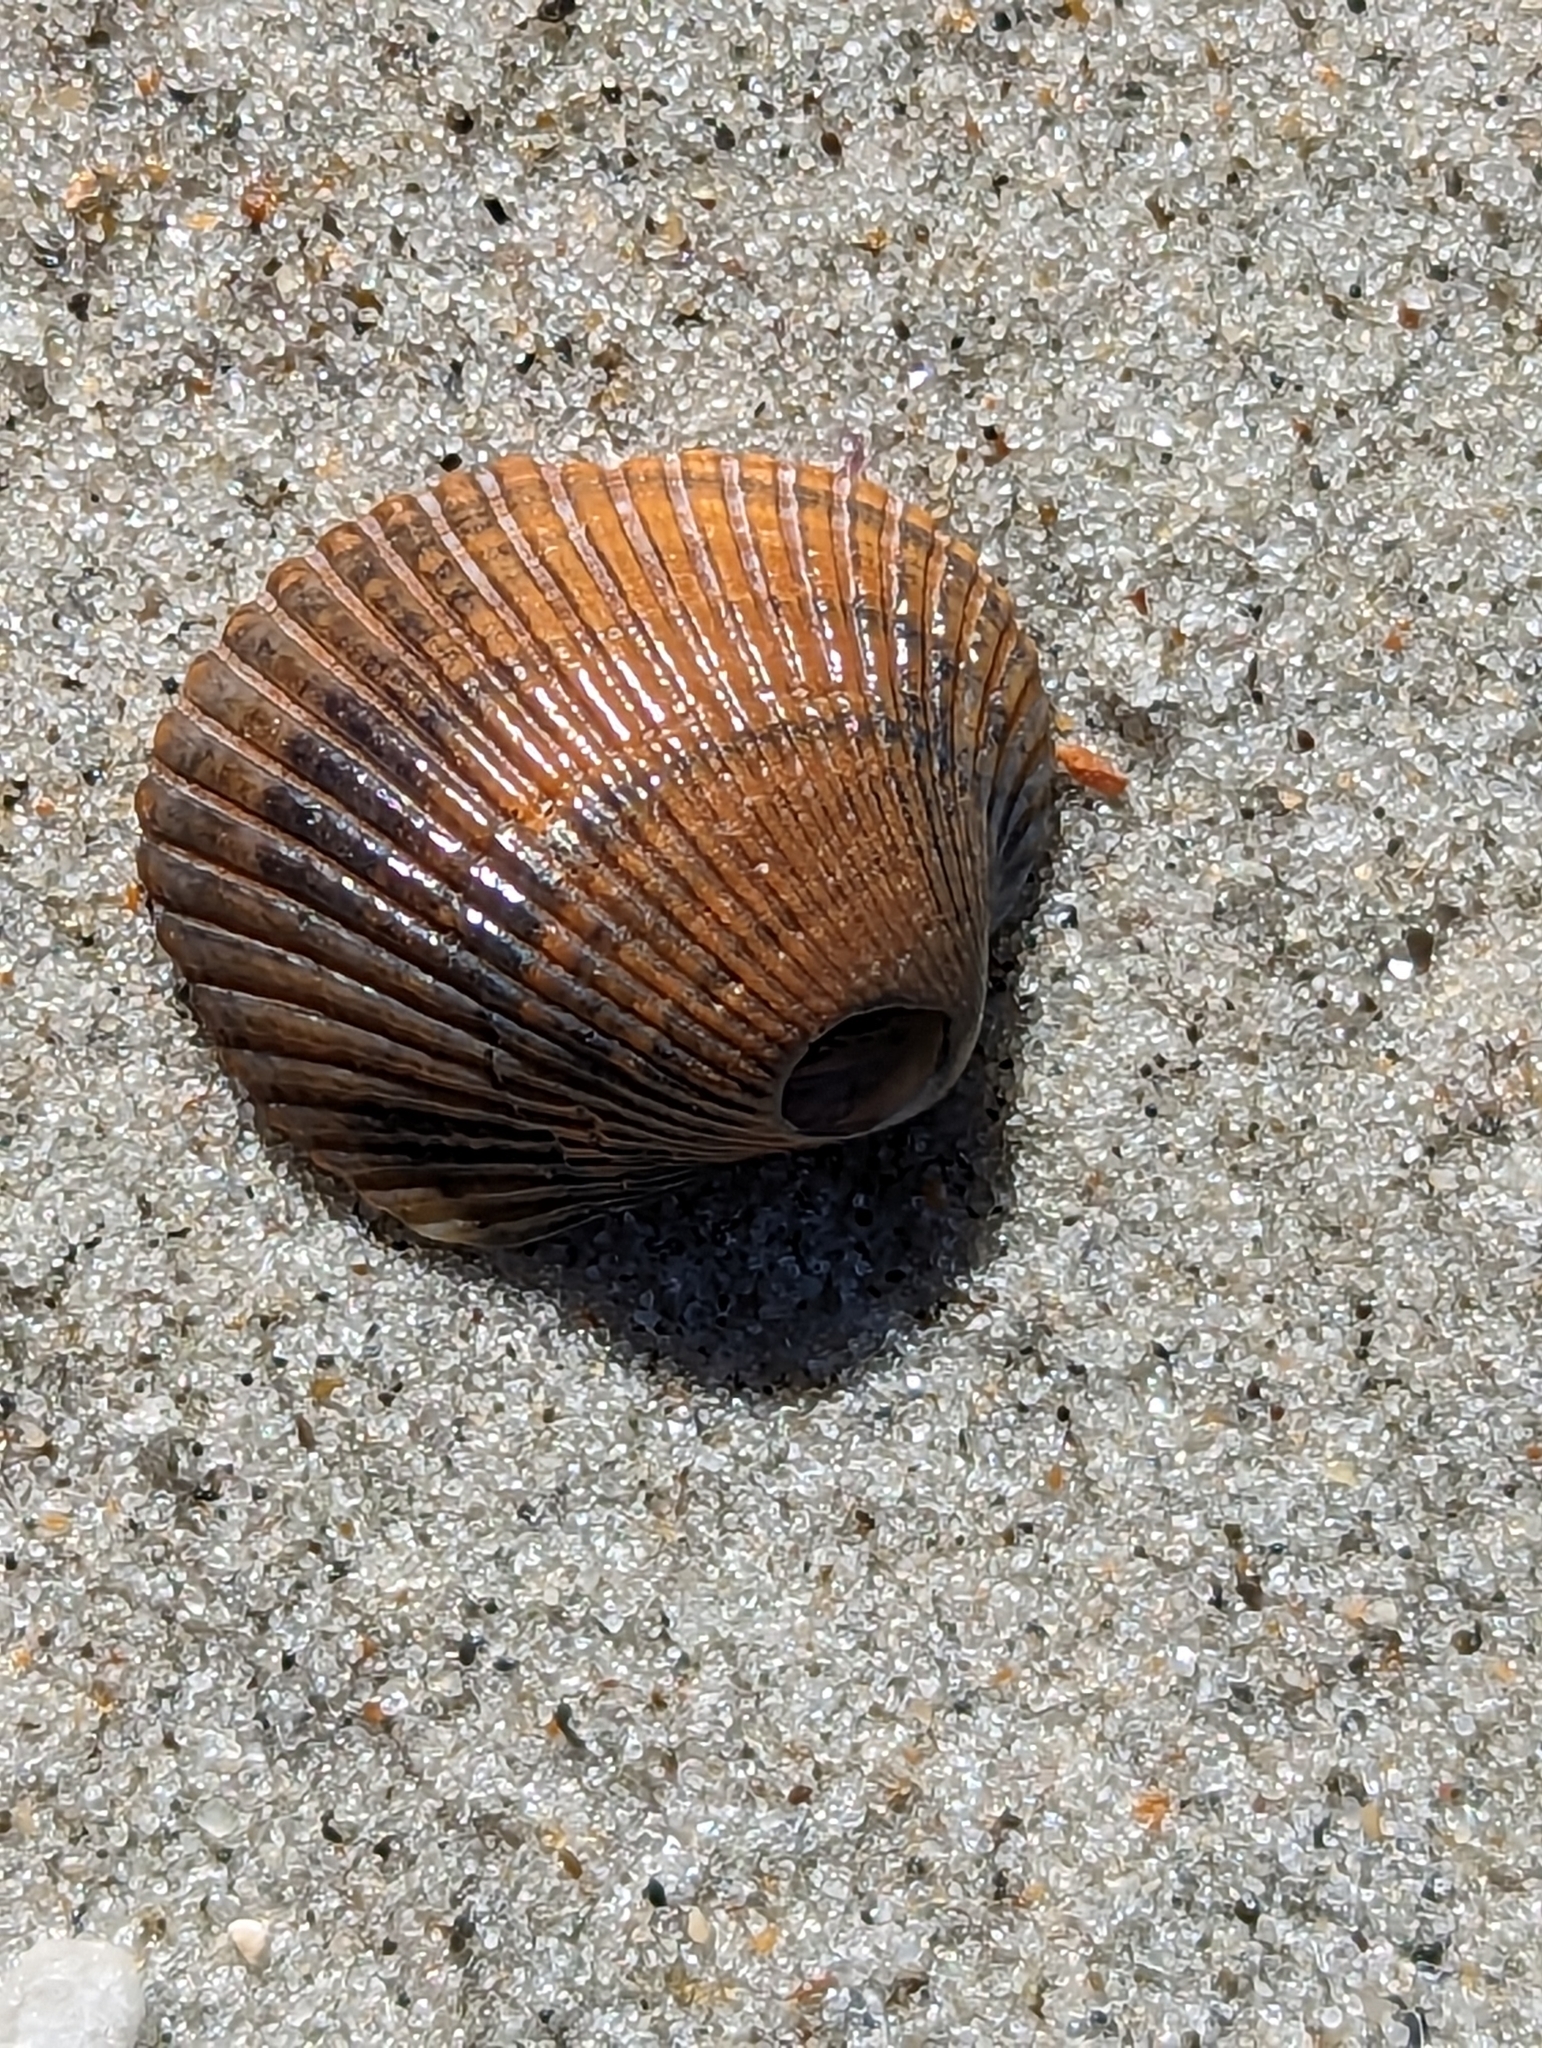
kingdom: Animalia
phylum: Mollusca
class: Bivalvia
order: Arcida
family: Arcidae
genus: Lunarca
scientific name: Lunarca ovalis
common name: Blood ark
